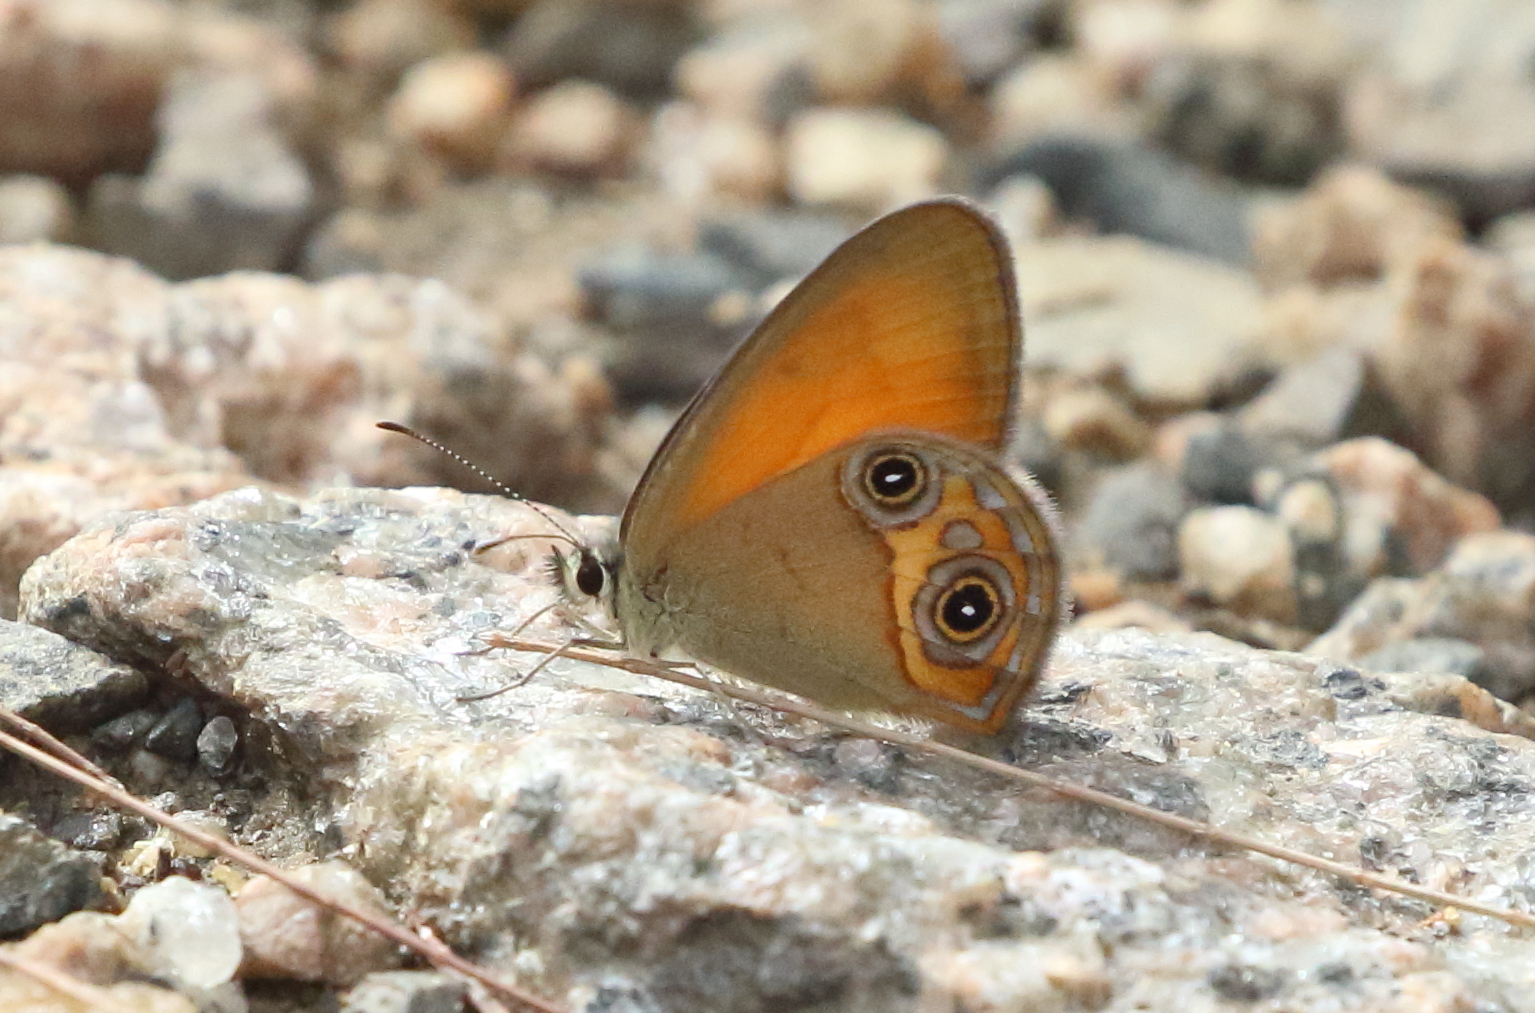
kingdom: Animalia
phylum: Arthropoda
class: Insecta
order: Lepidoptera
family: Nymphalidae
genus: Hypocysta
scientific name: Hypocysta adiante
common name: Orange ringlet
